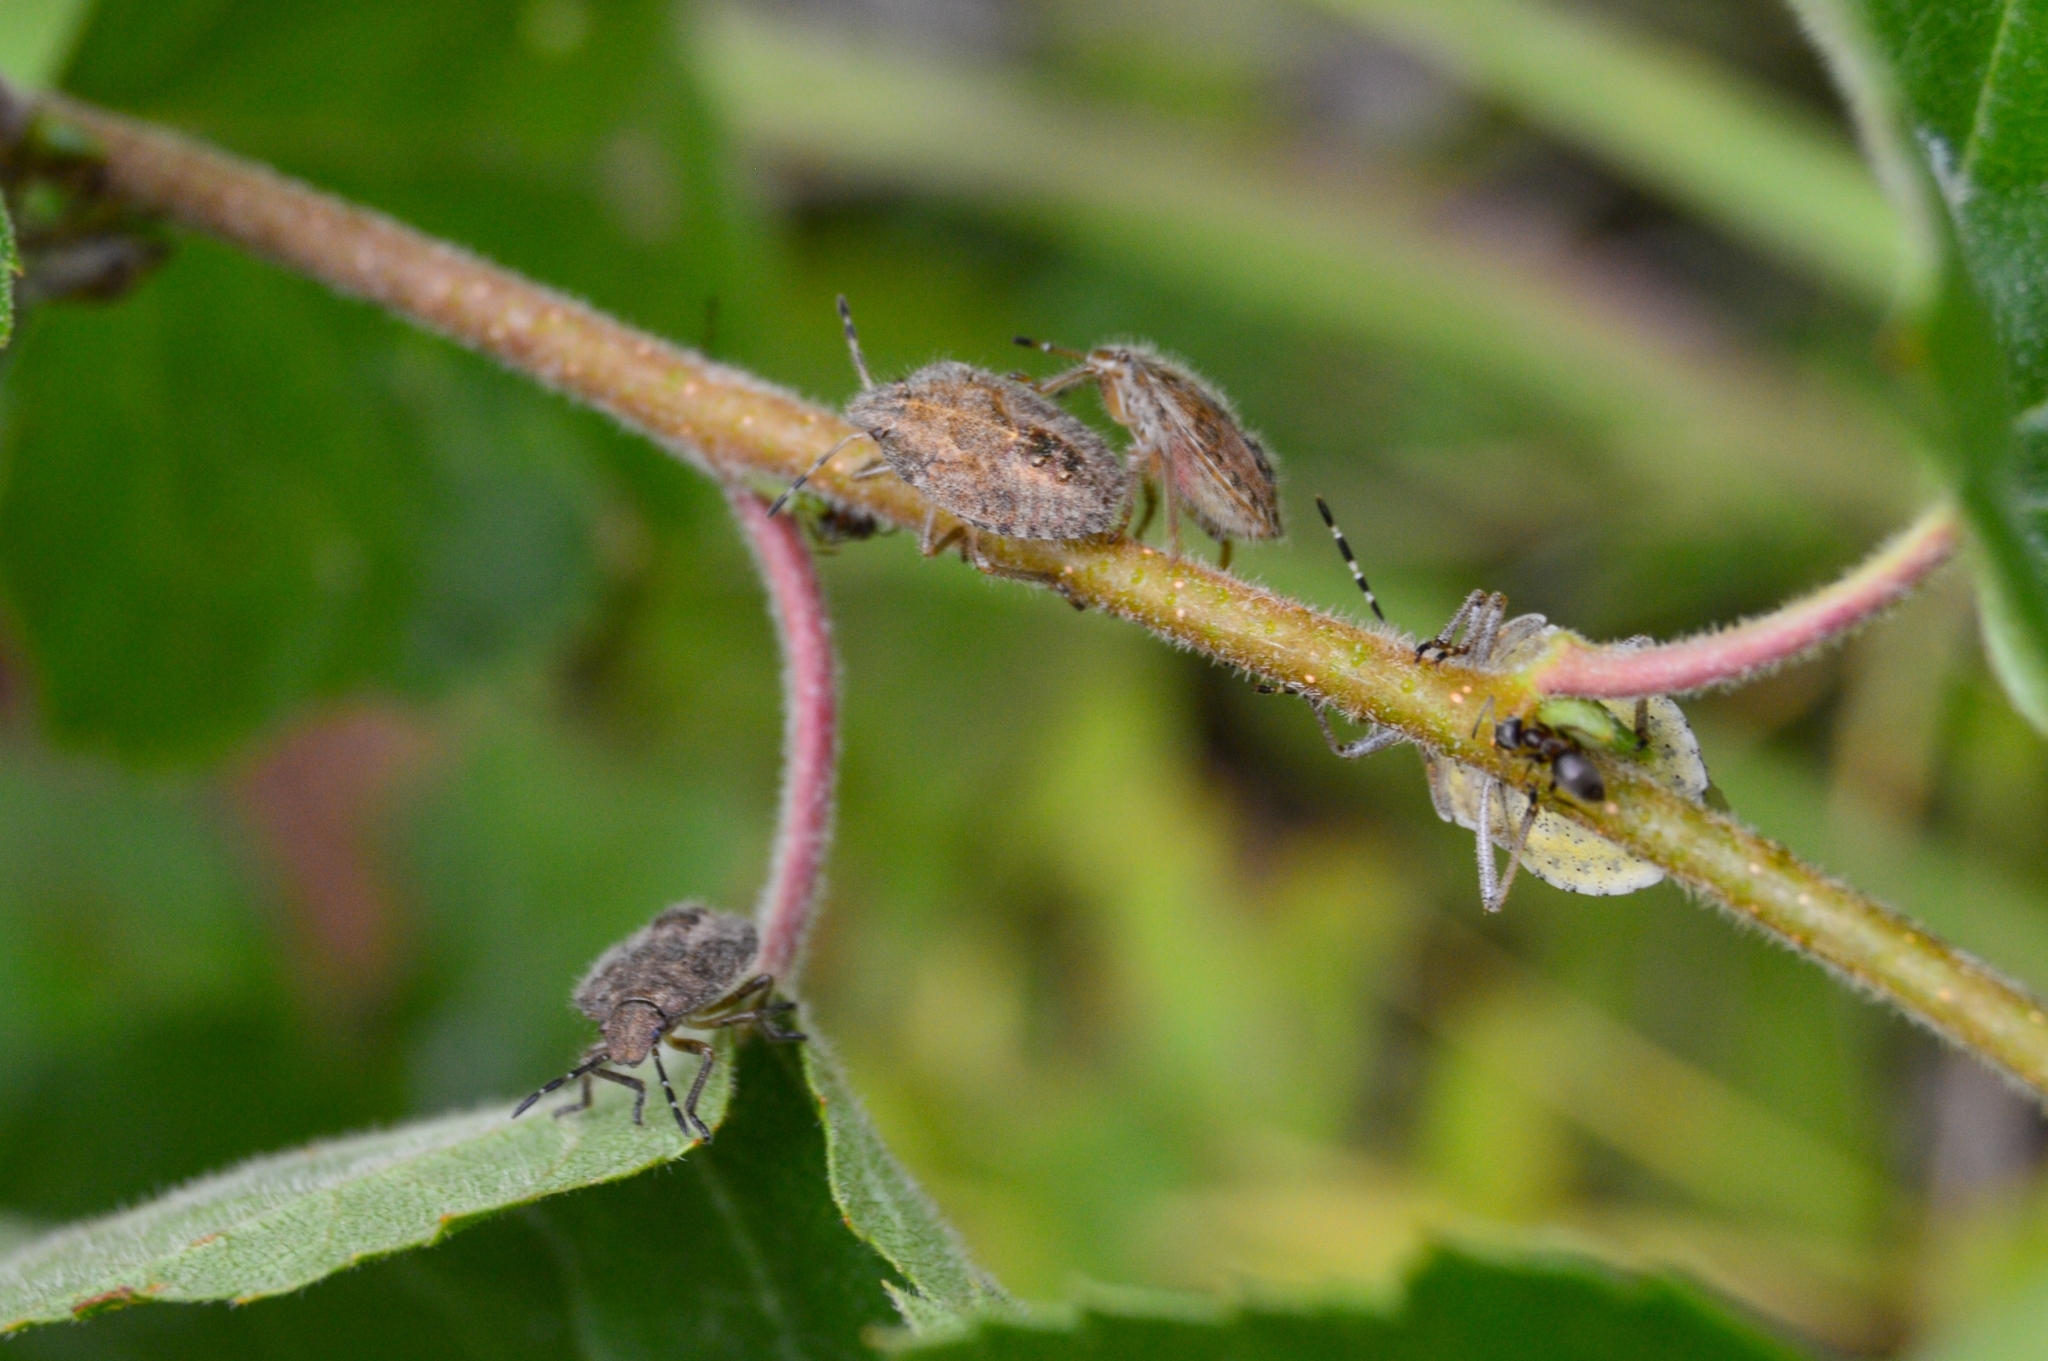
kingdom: Animalia
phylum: Arthropoda
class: Insecta
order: Hemiptera
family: Pentatomidae
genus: Dolycoris
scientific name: Dolycoris baccarum
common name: Sloe bug
